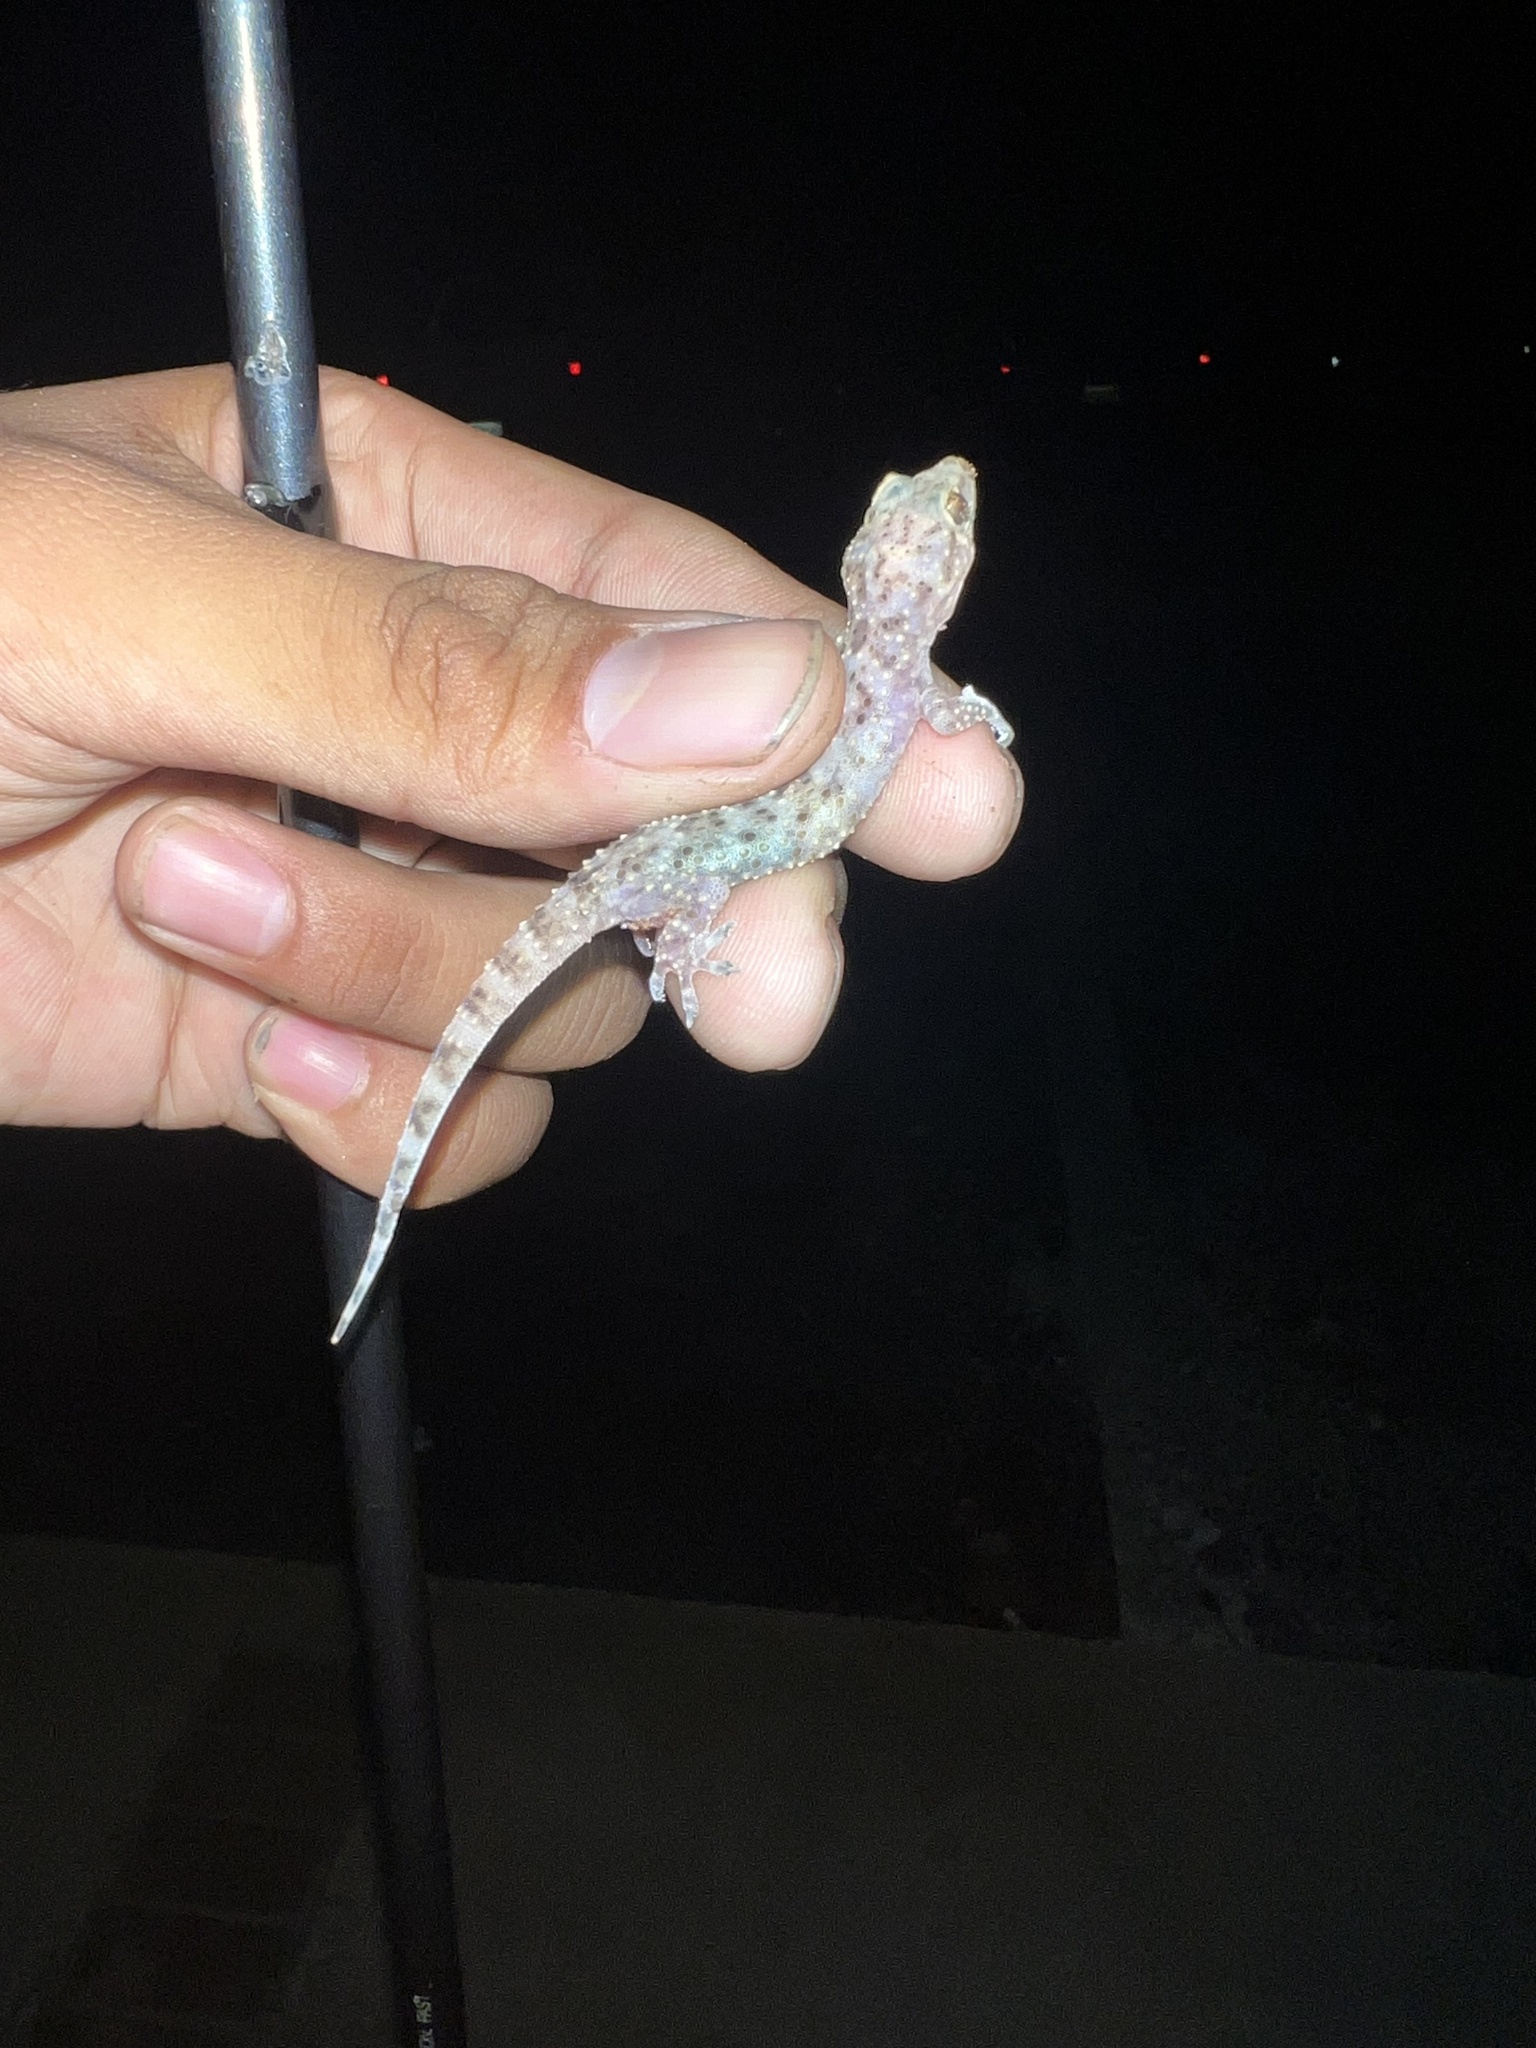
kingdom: Animalia
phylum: Chordata
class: Squamata
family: Gekkonidae
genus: Hemidactylus
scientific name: Hemidactylus turcicus
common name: Turkish gecko
